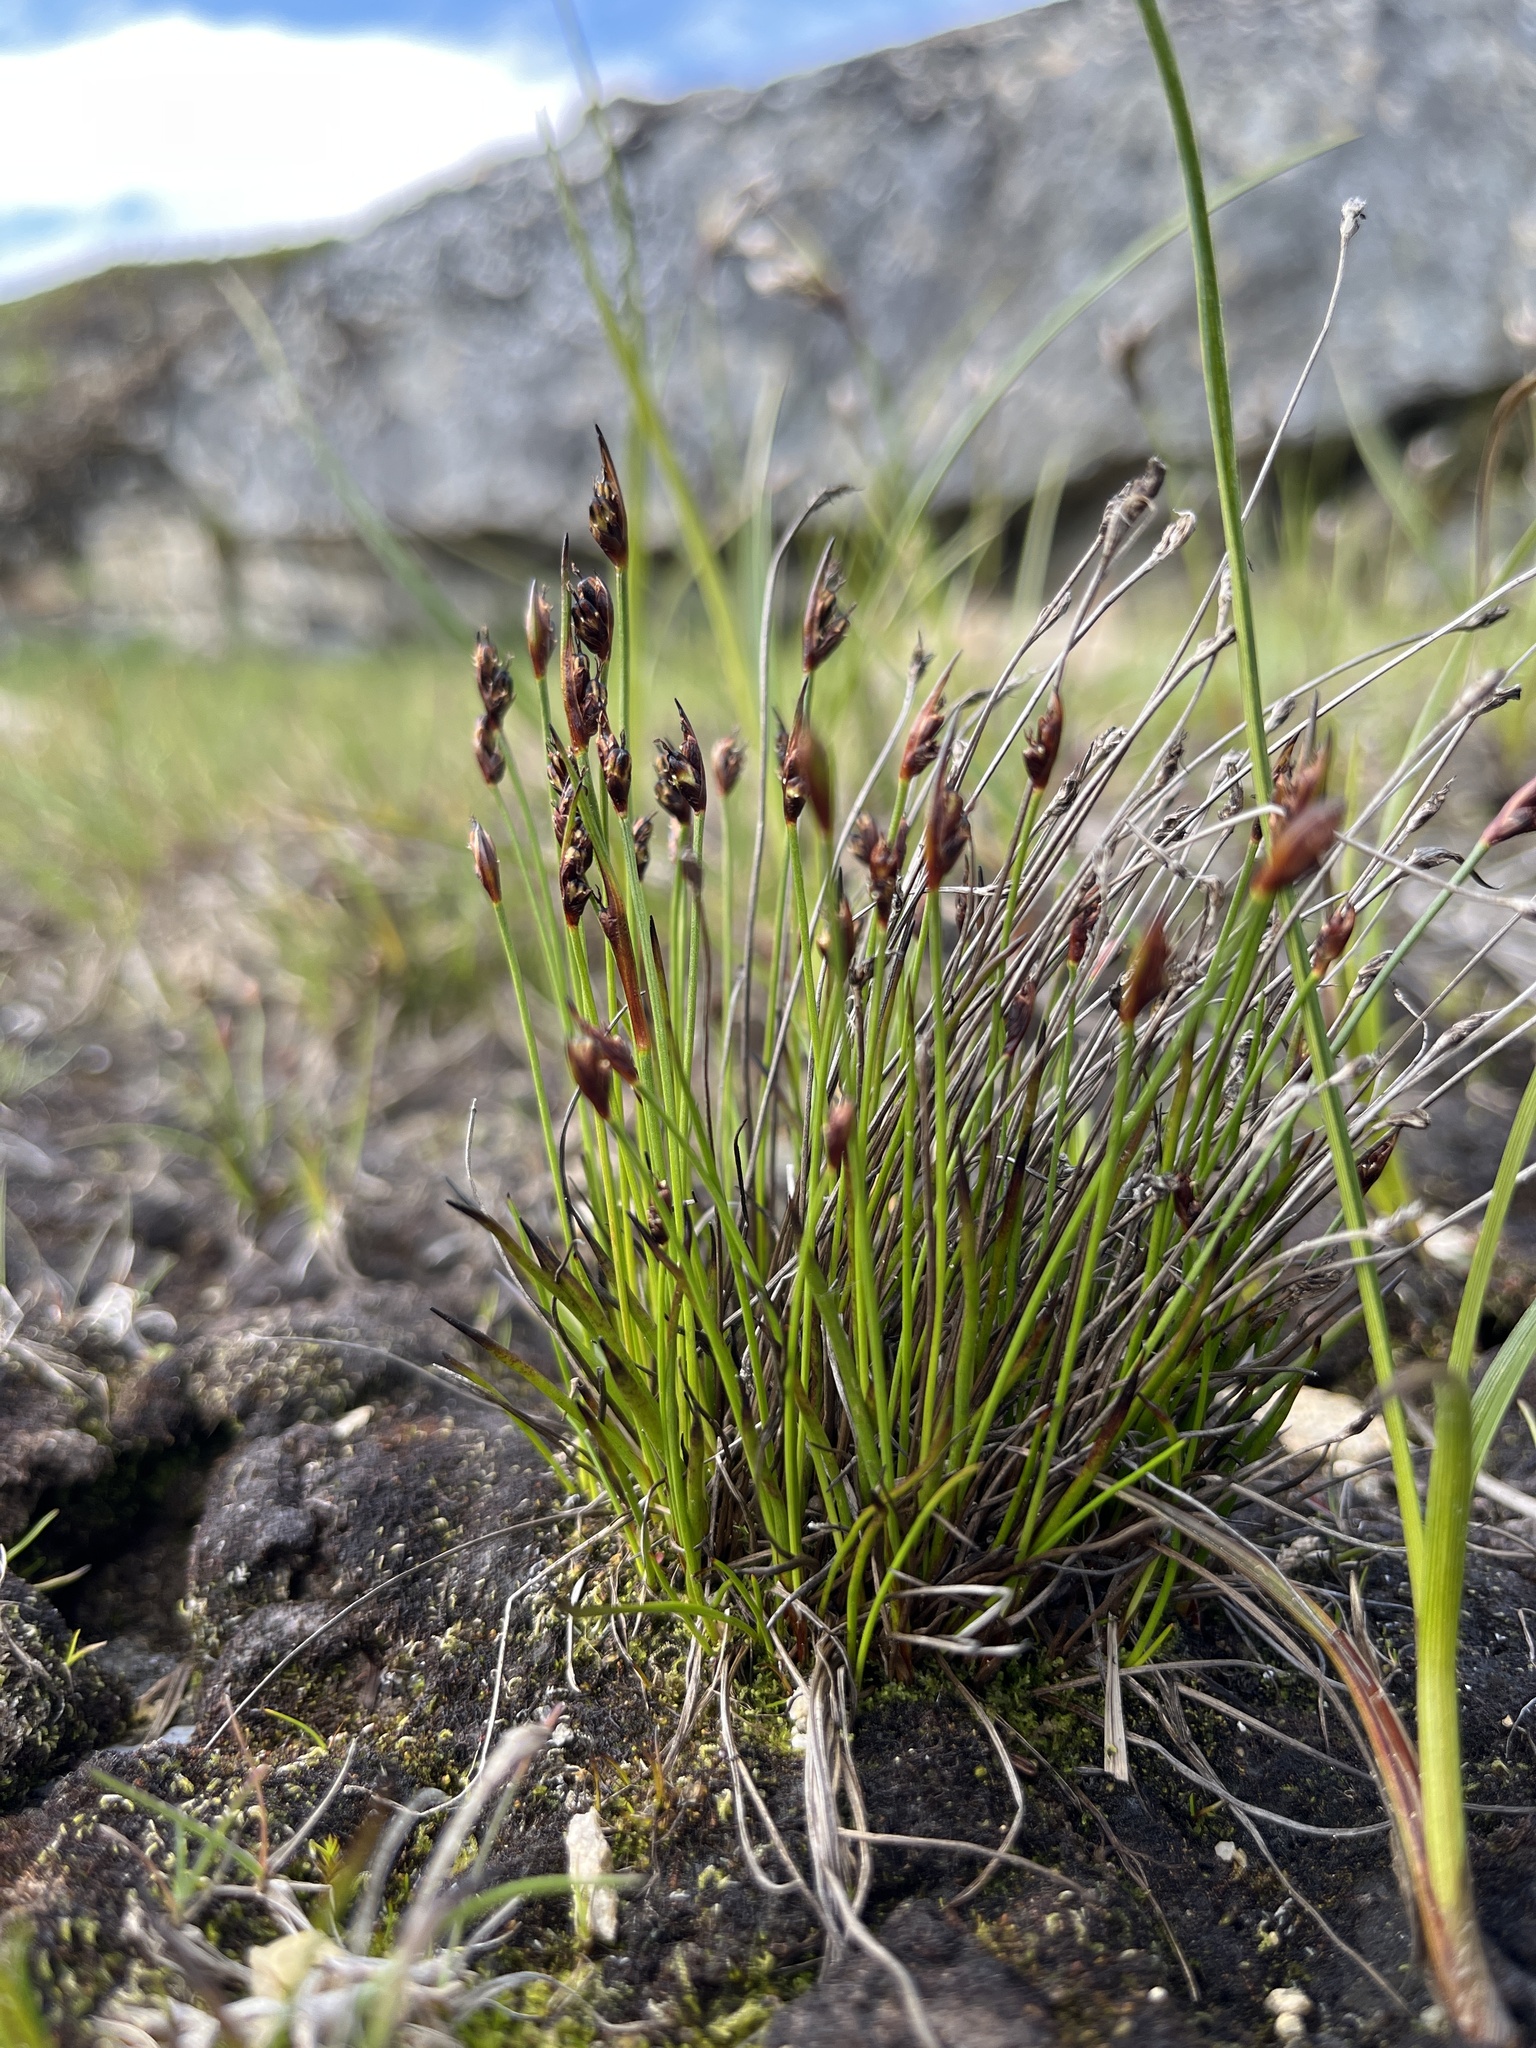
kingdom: Plantae
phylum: Tracheophyta
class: Liliopsida
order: Poales
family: Juncaceae
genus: Juncus
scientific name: Juncus biglumis
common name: Two-flowered rush
